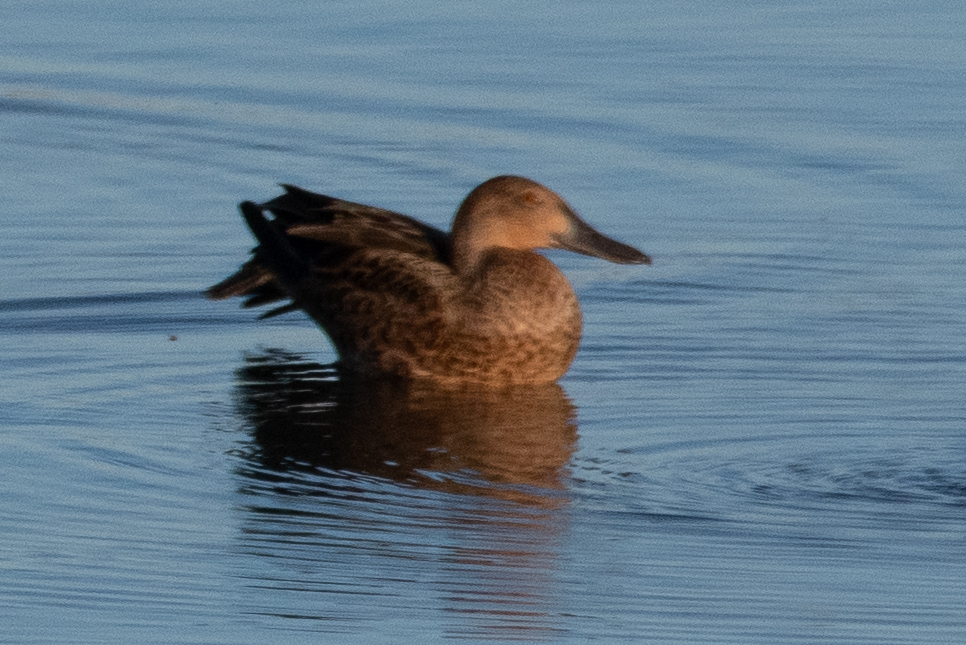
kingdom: Animalia
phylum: Chordata
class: Aves
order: Anseriformes
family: Anatidae
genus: Spatula
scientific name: Spatula cyanoptera
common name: Cinnamon teal
